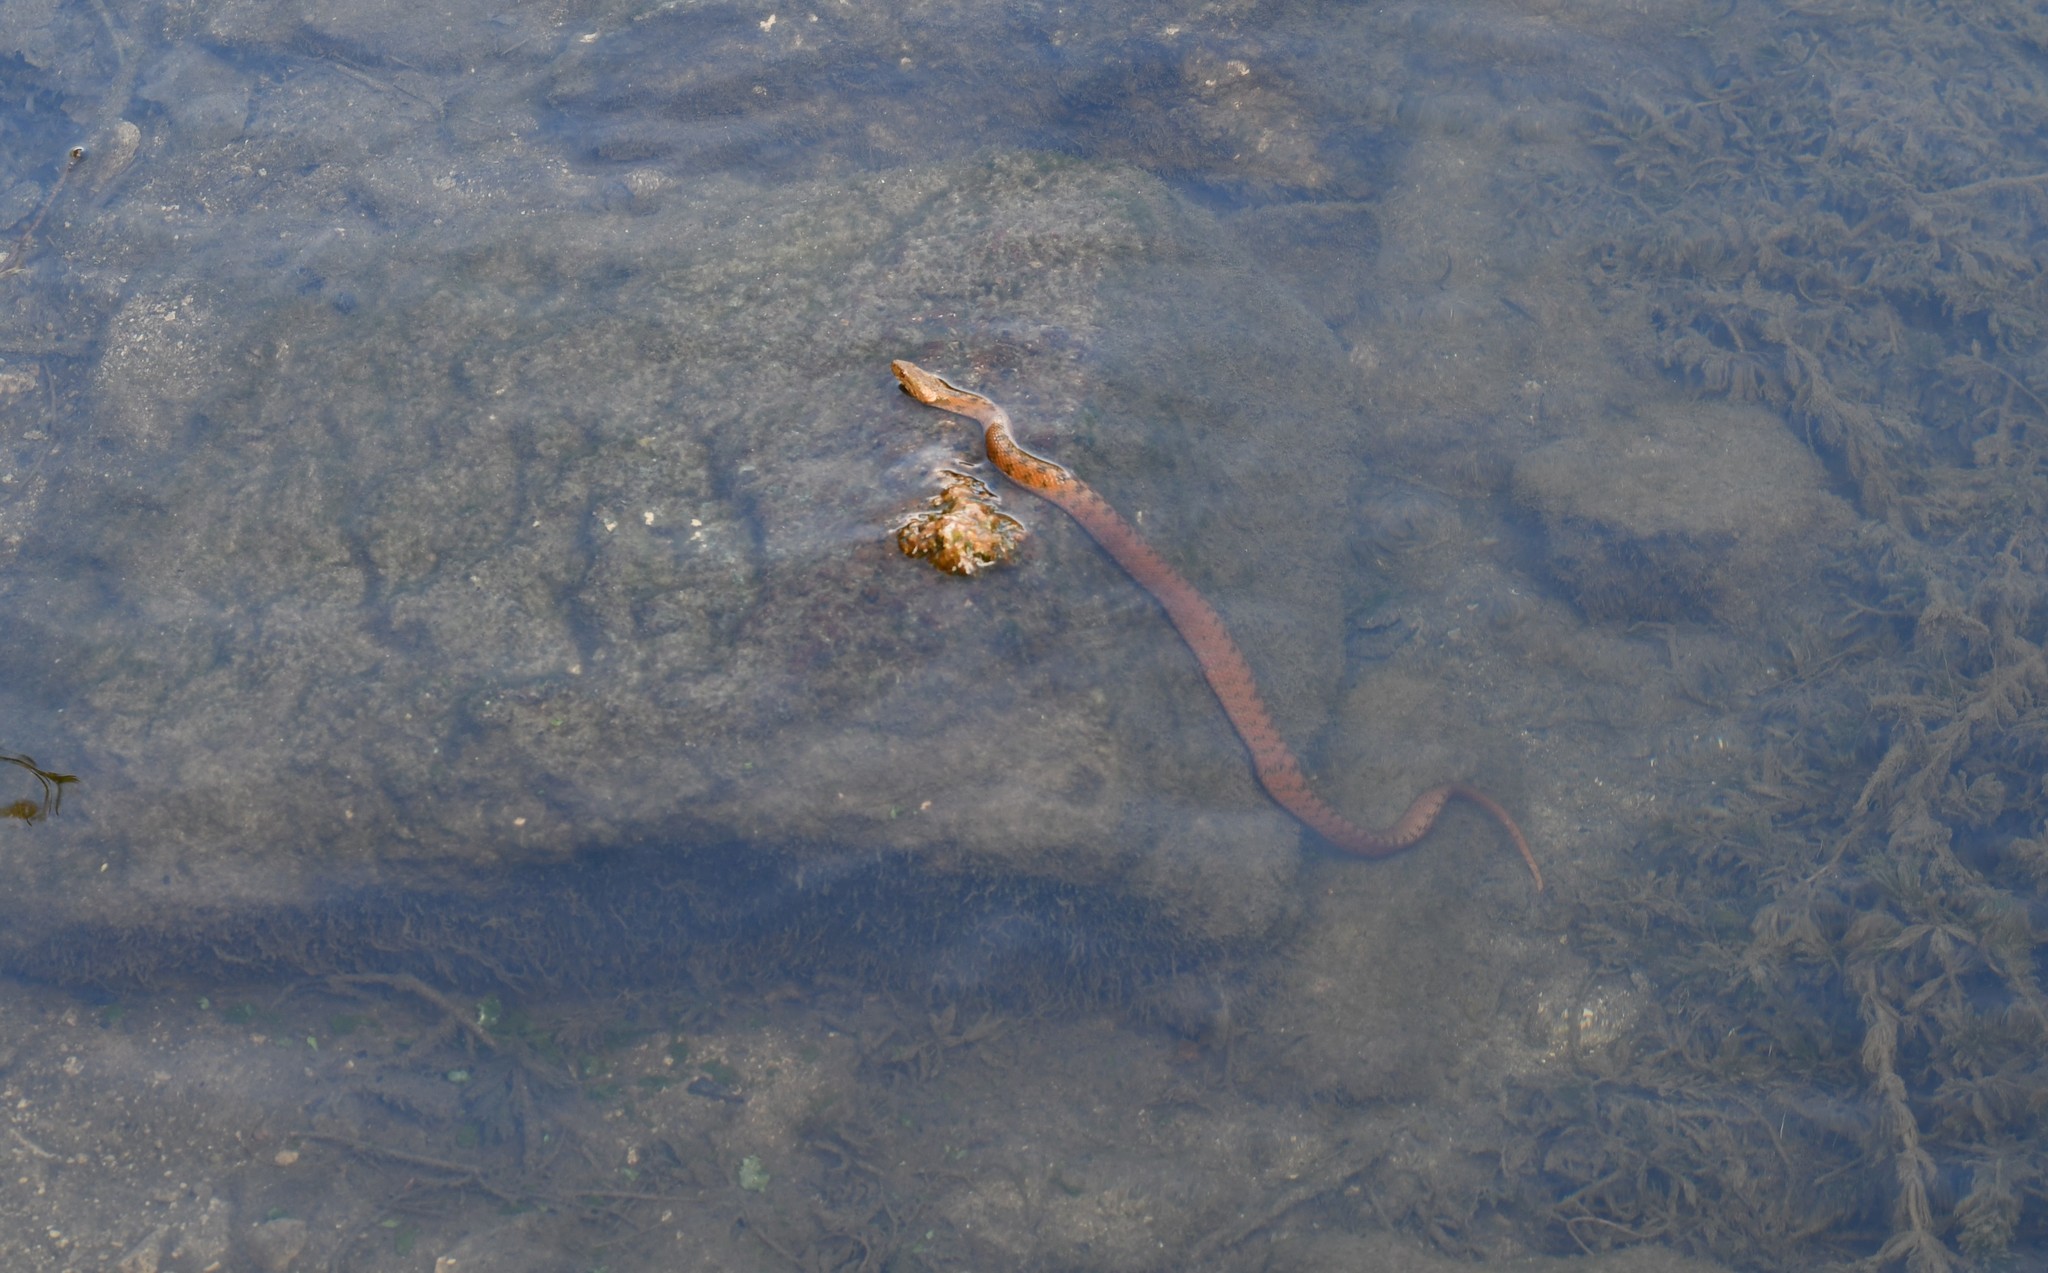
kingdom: Animalia
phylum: Chordata
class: Squamata
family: Colubridae
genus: Natrix
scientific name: Natrix maura
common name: Viperine water snake
